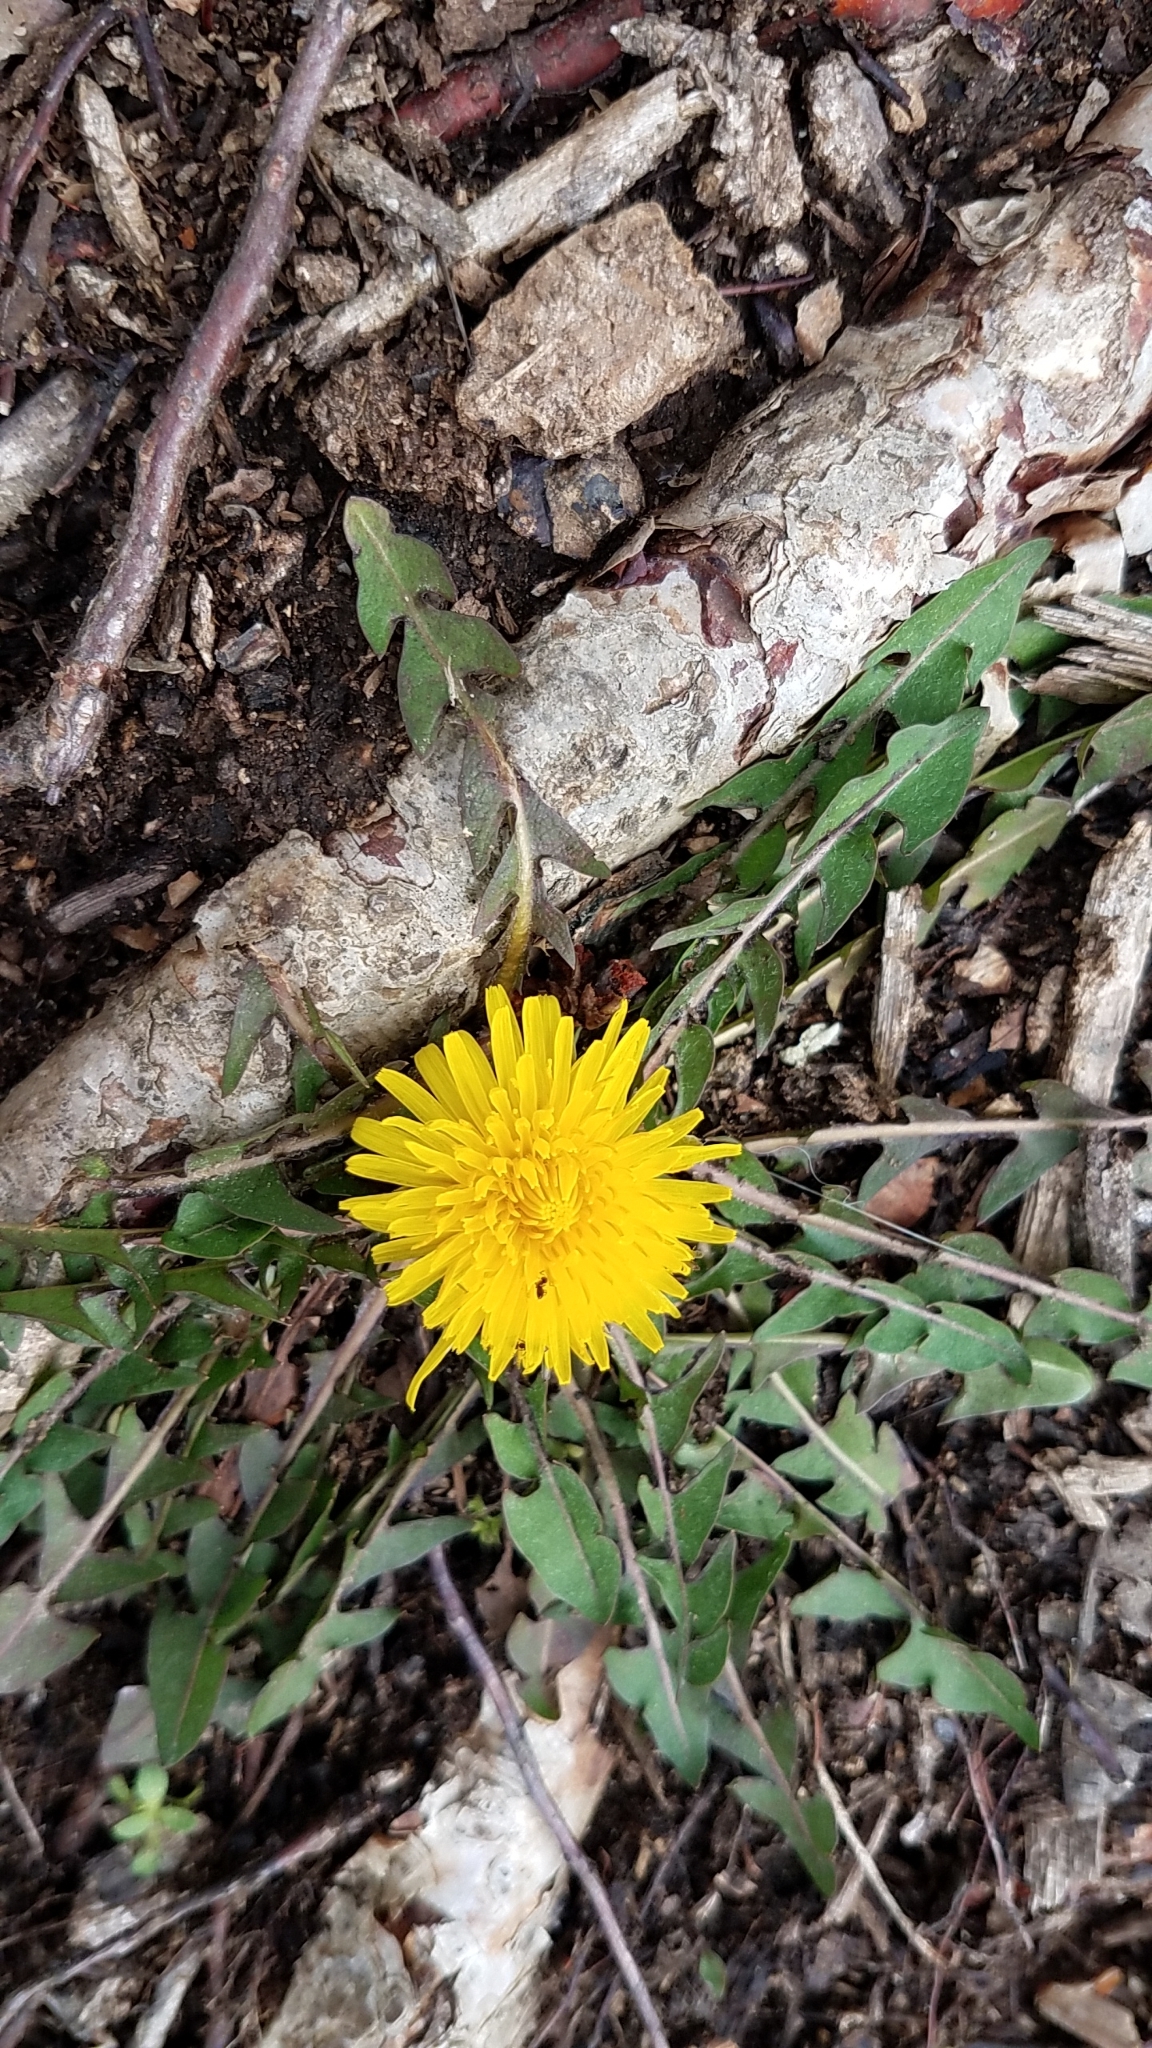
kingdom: Plantae
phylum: Tracheophyta
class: Magnoliopsida
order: Asterales
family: Asteraceae
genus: Taraxacum
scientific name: Taraxacum officinale
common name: Common dandelion
